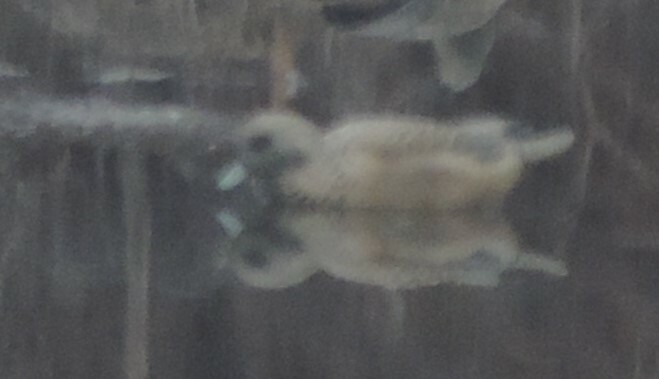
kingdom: Animalia
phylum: Chordata
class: Aves
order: Anseriformes
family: Anatidae
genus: Mareca
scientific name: Mareca americana
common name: American wigeon
